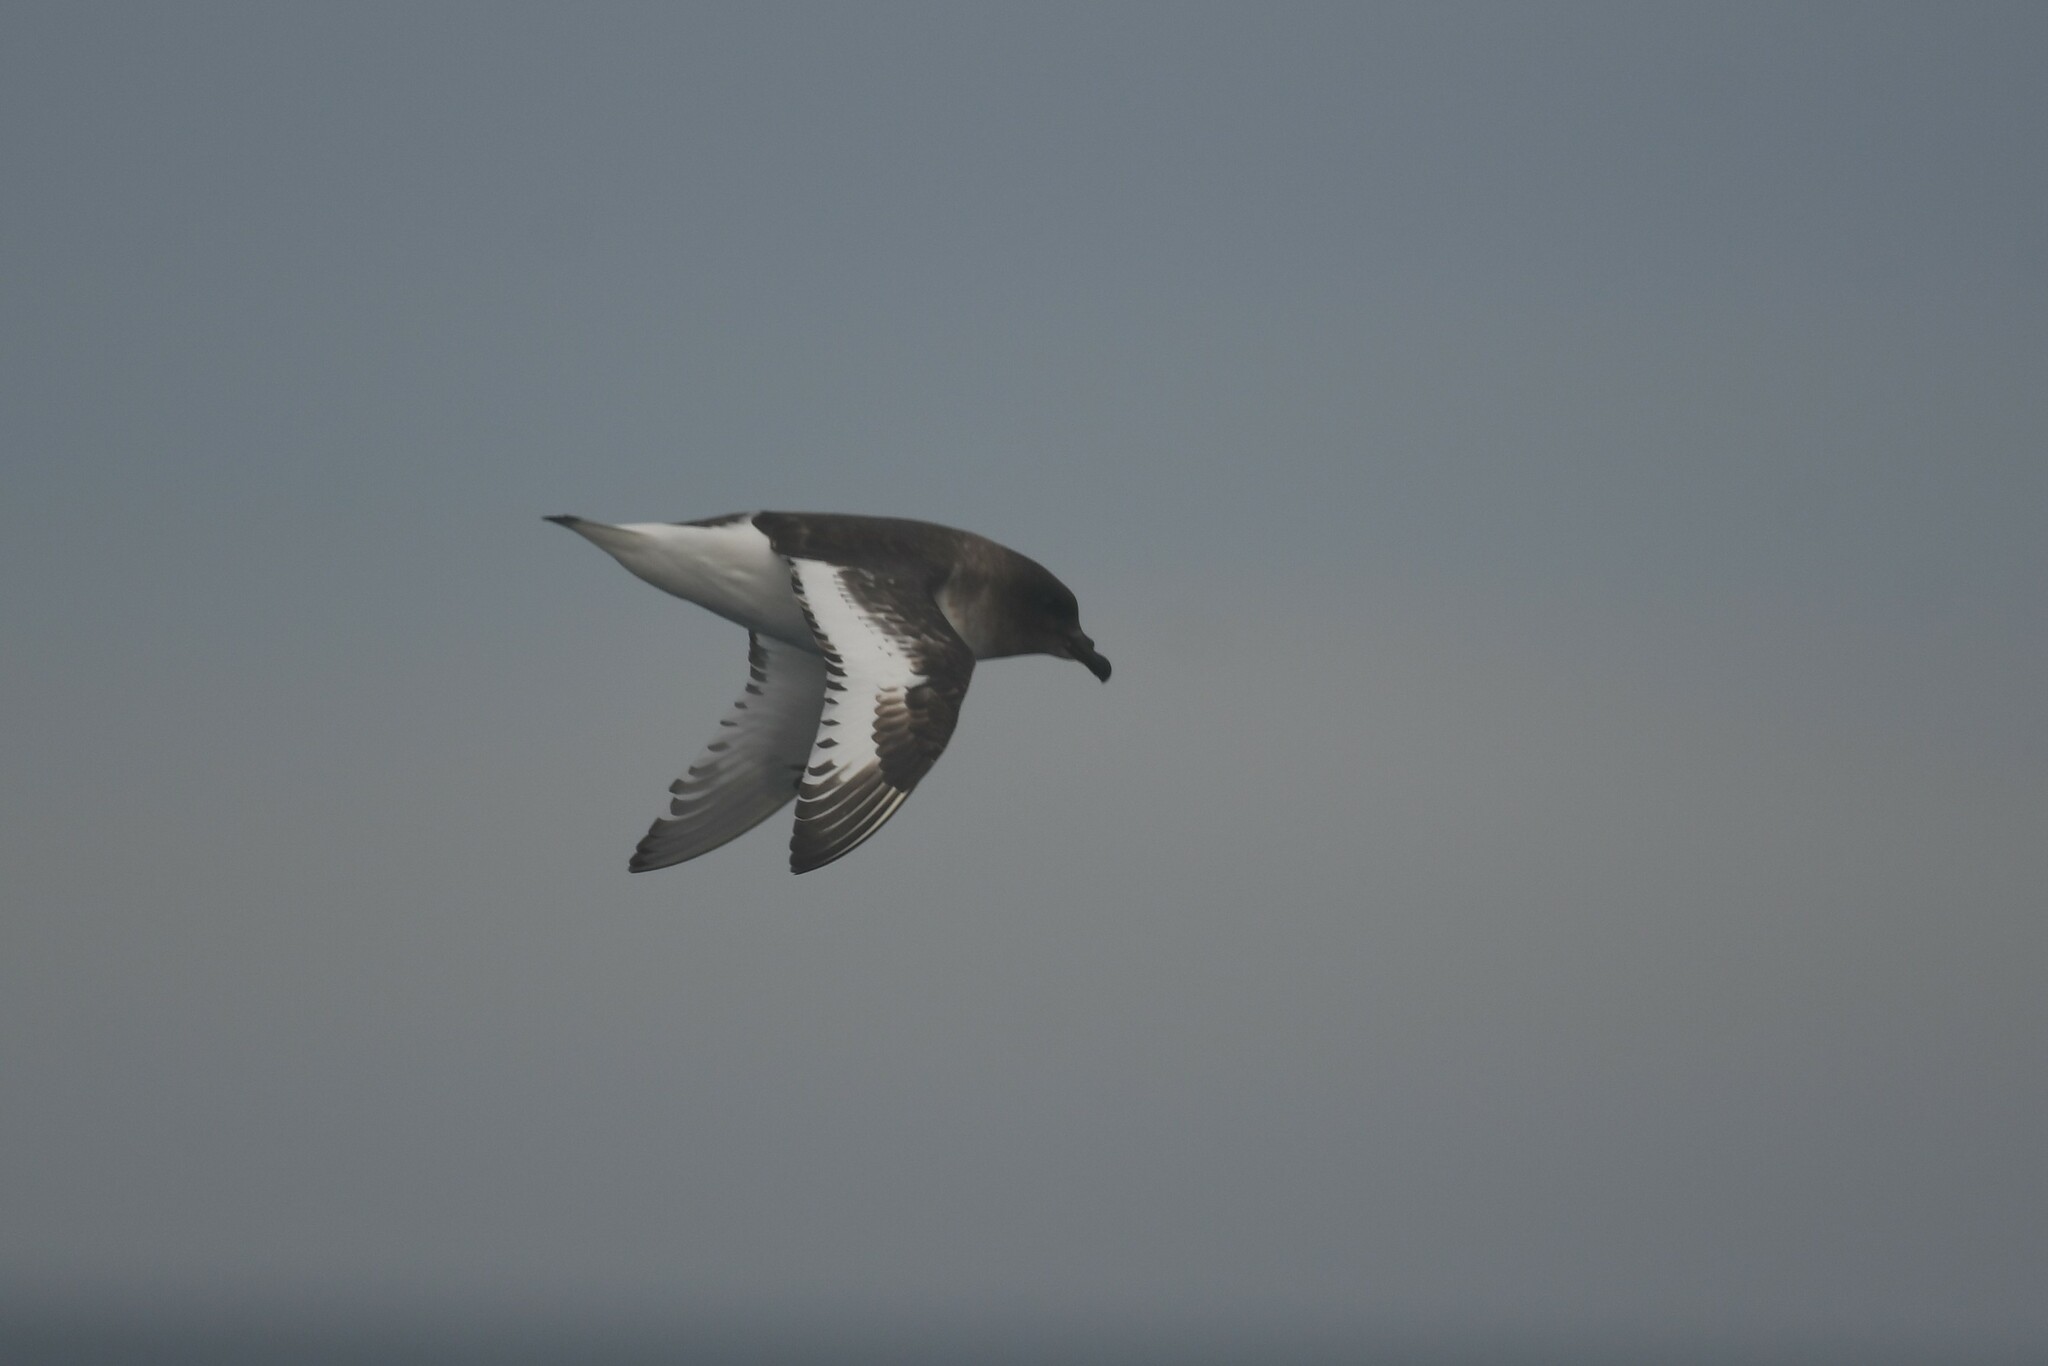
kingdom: Animalia
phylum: Chordata
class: Aves
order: Procellariiformes
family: Procellariidae
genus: Thalassoica
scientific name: Thalassoica antarctica
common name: Antarctic petrel
